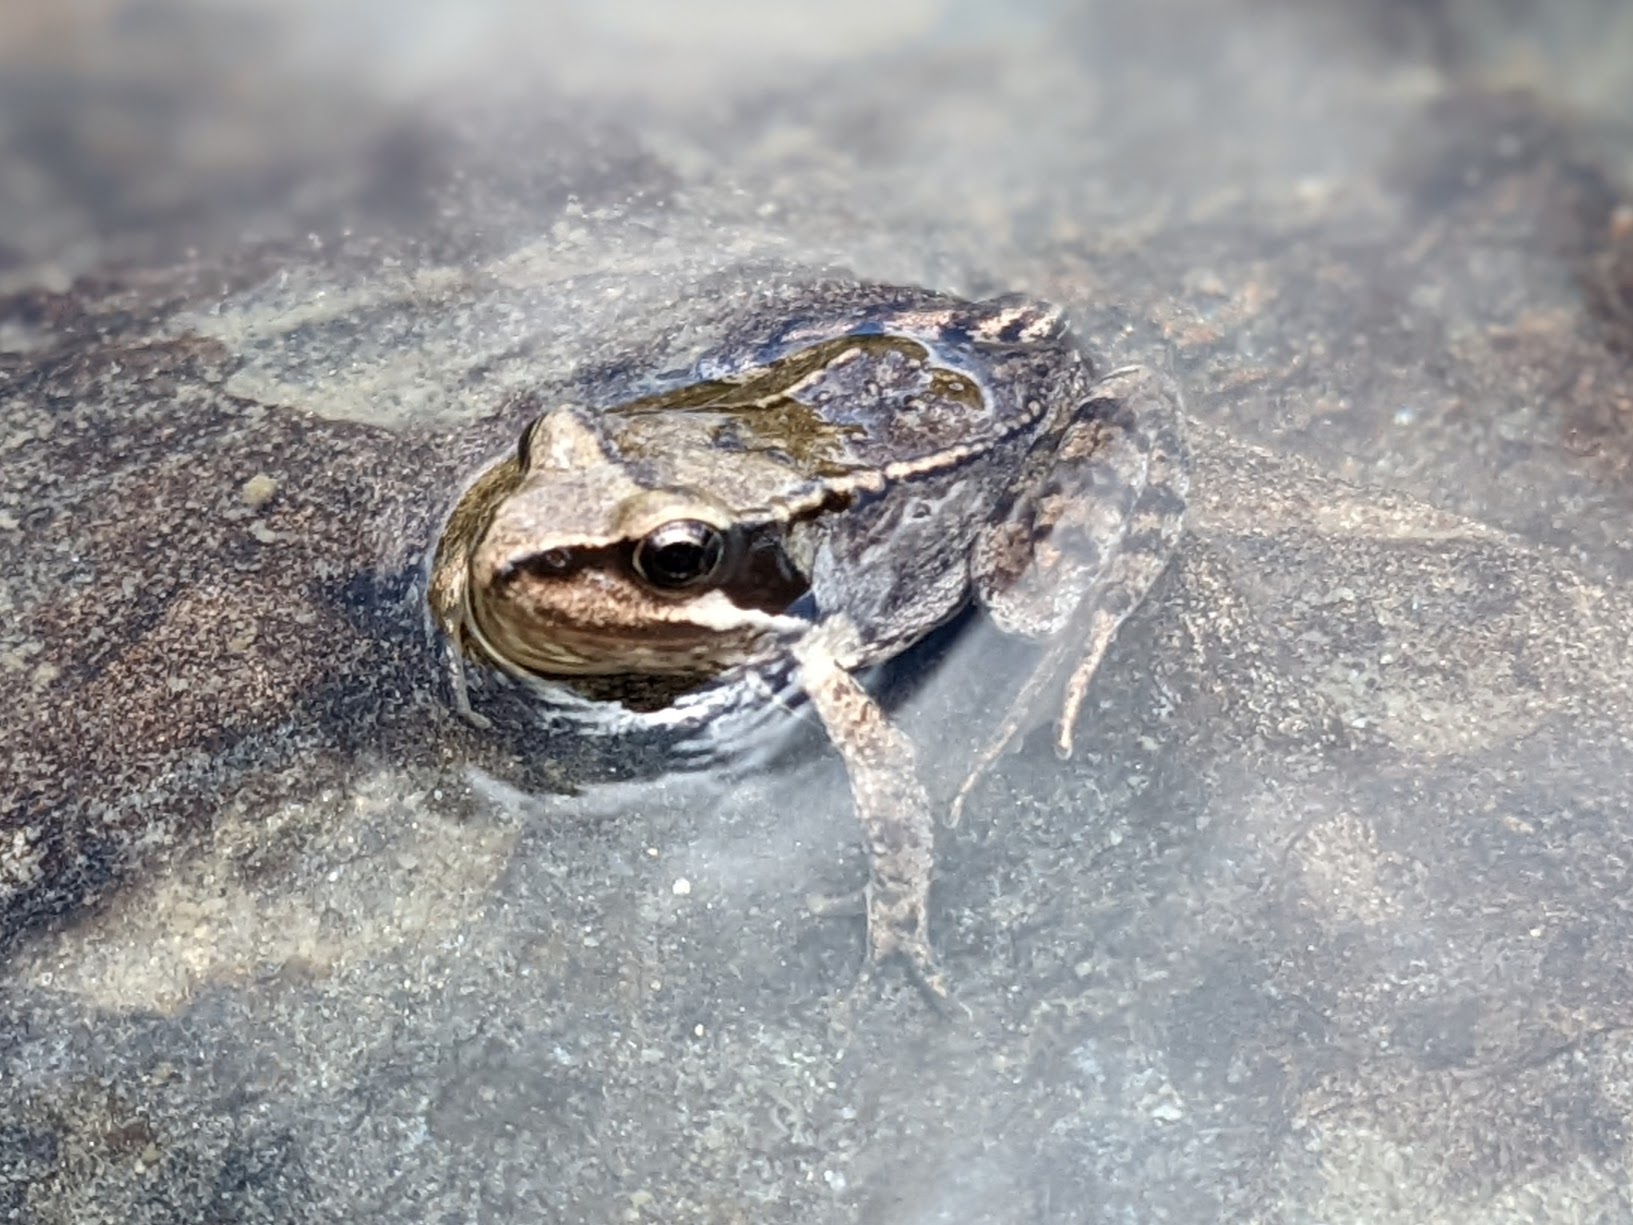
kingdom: Animalia
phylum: Chordata
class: Amphibia
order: Anura
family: Ranidae
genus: Rana
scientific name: Rana temporaria
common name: Common frog
